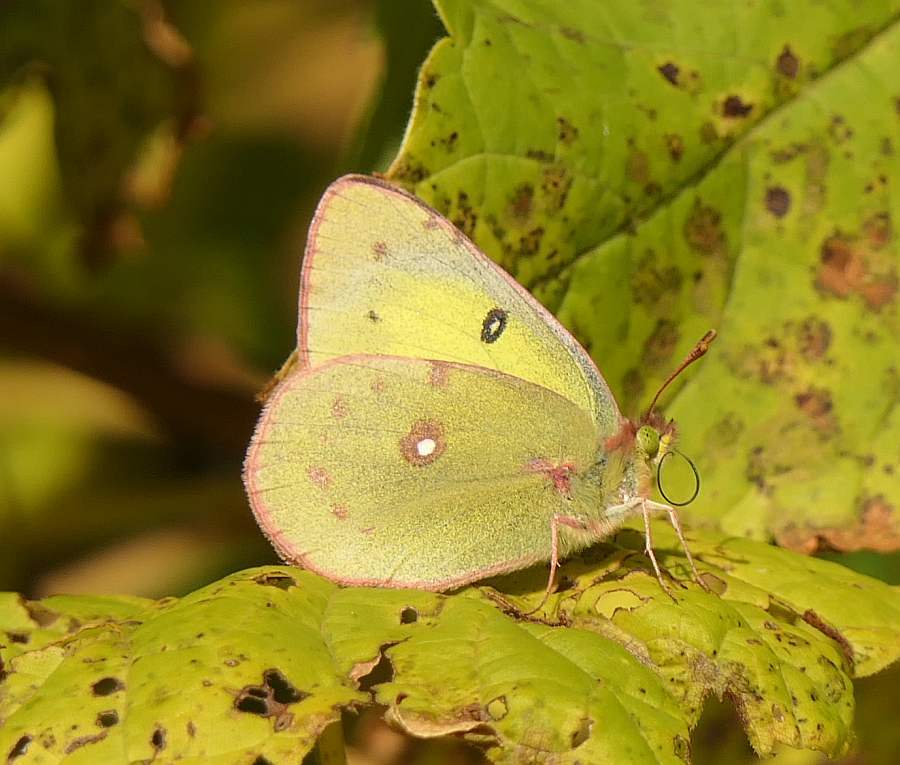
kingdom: Animalia
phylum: Arthropoda
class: Insecta
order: Lepidoptera
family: Pieridae
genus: Colias
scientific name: Colias philodice
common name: Clouded sulphur
